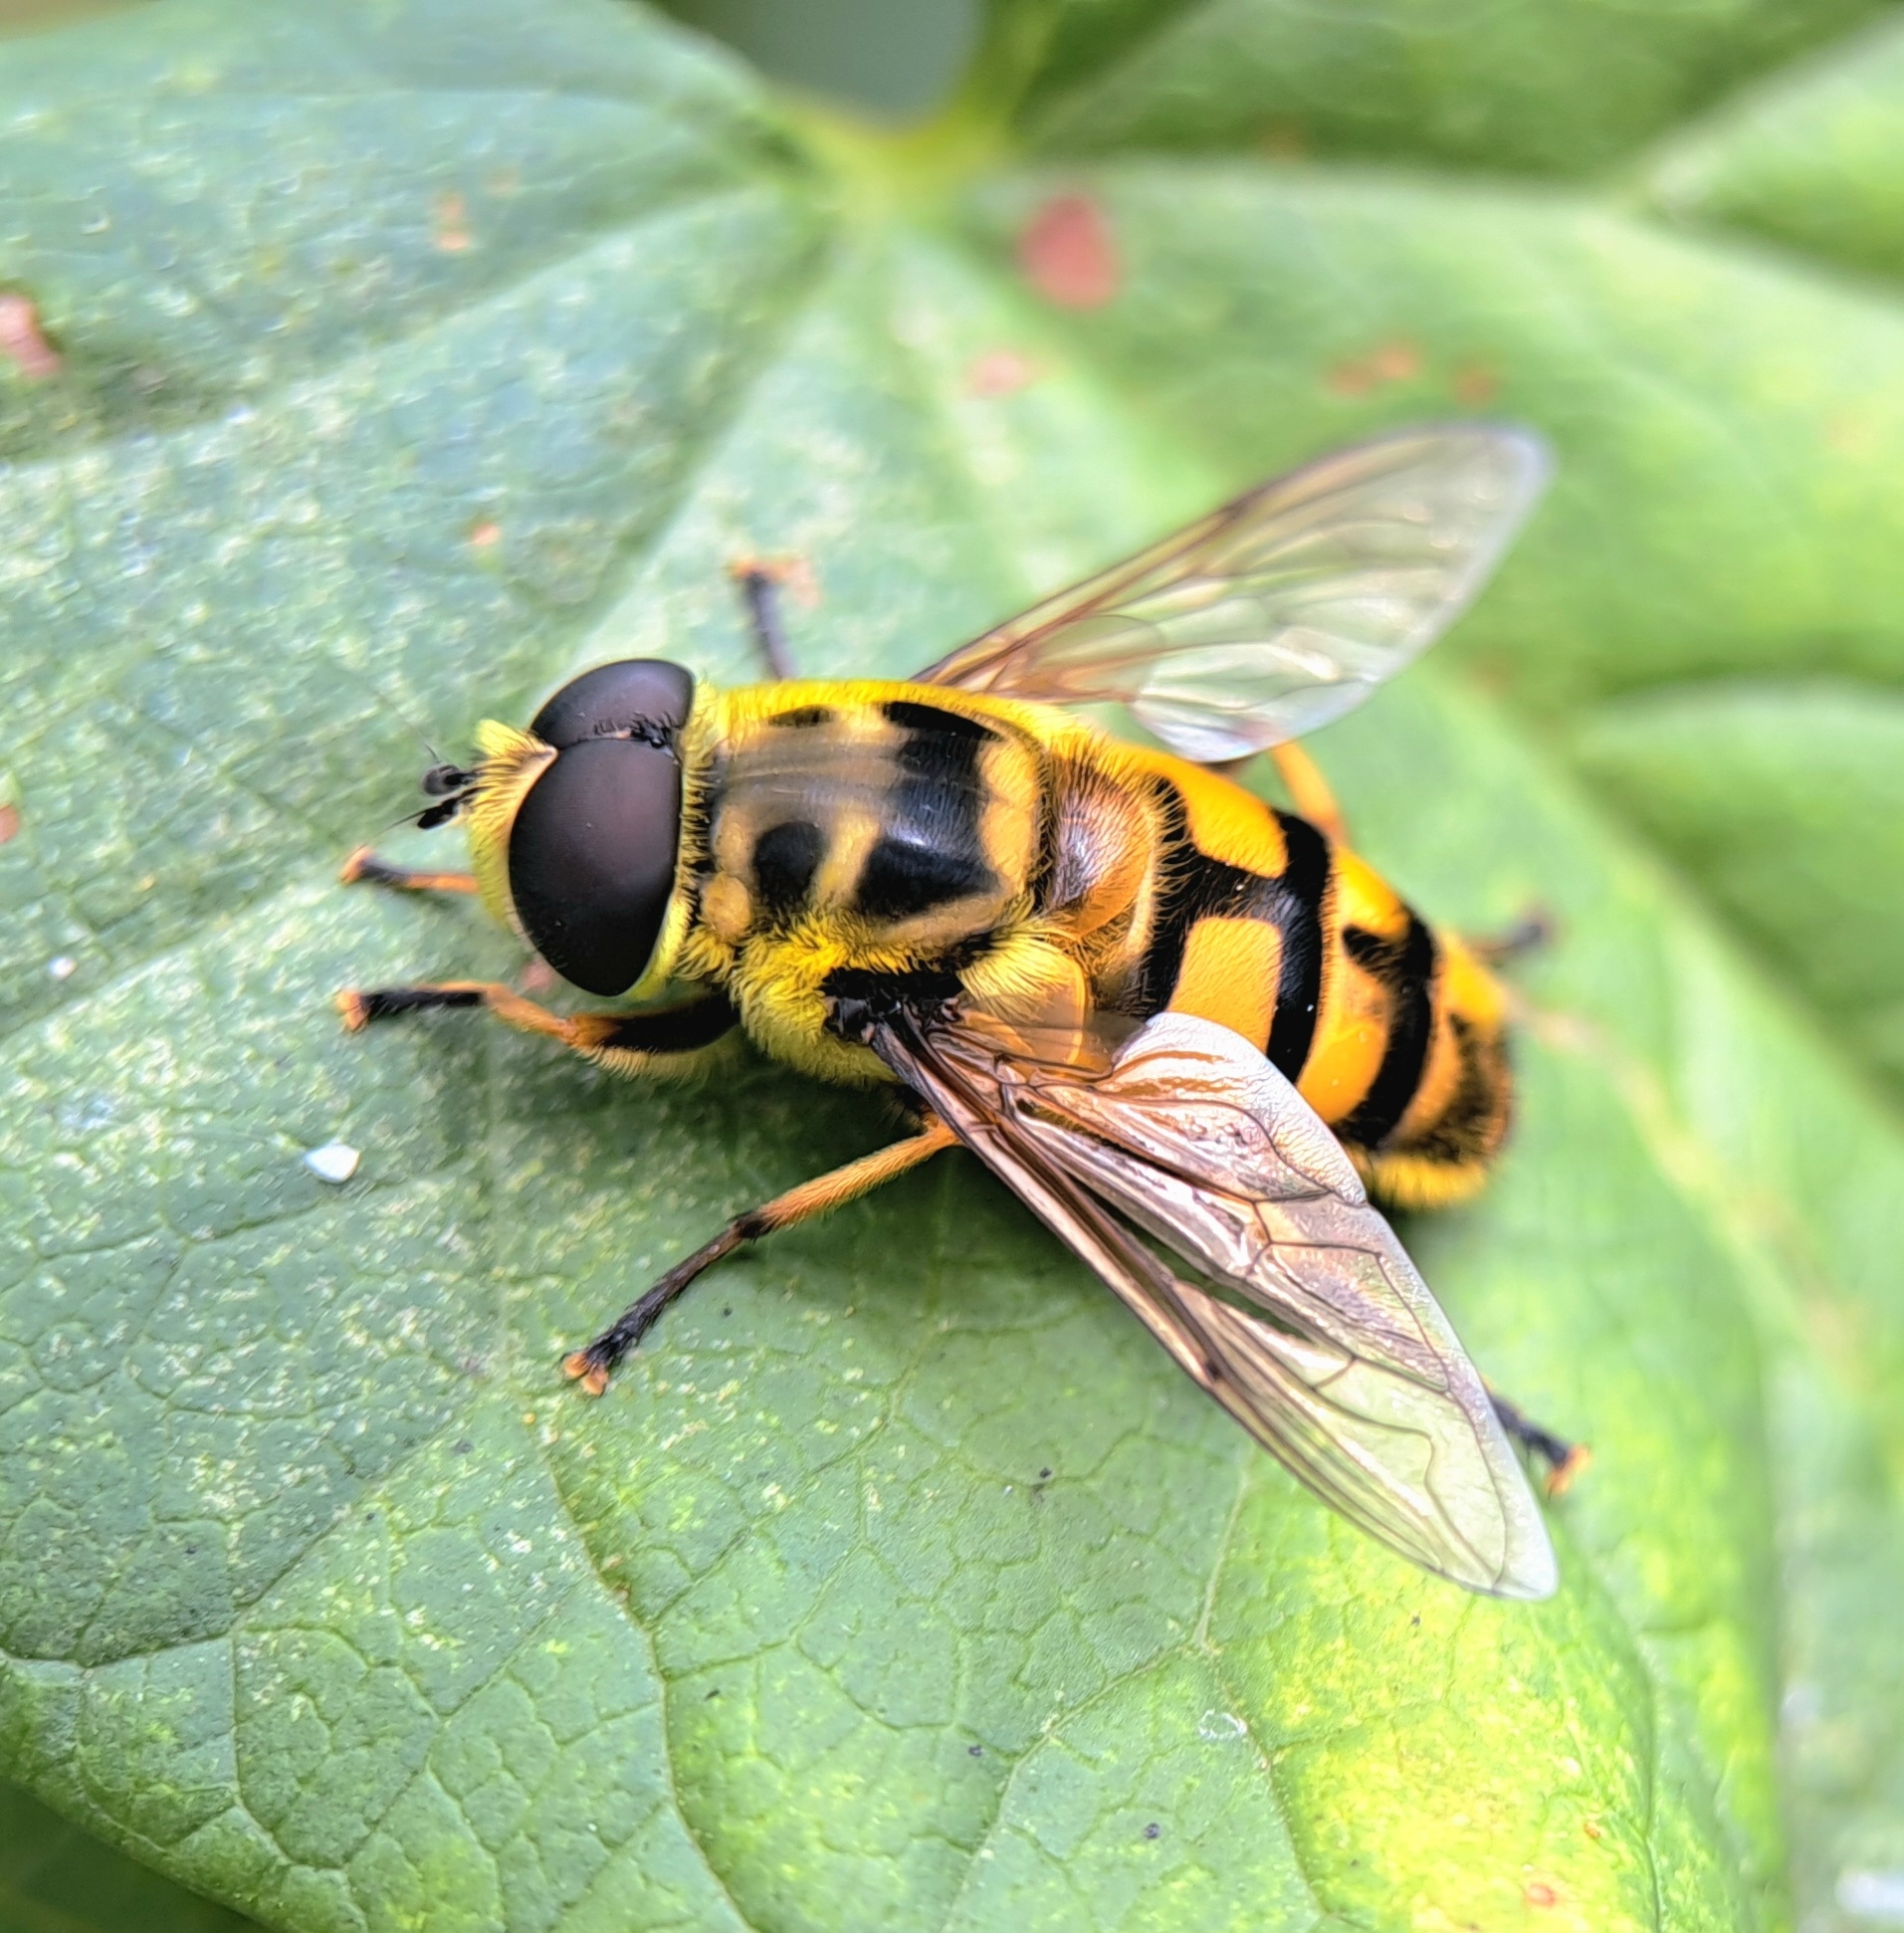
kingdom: Animalia
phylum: Arthropoda
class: Insecta
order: Diptera
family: Syrphidae
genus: Myathropa
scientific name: Myathropa florea
